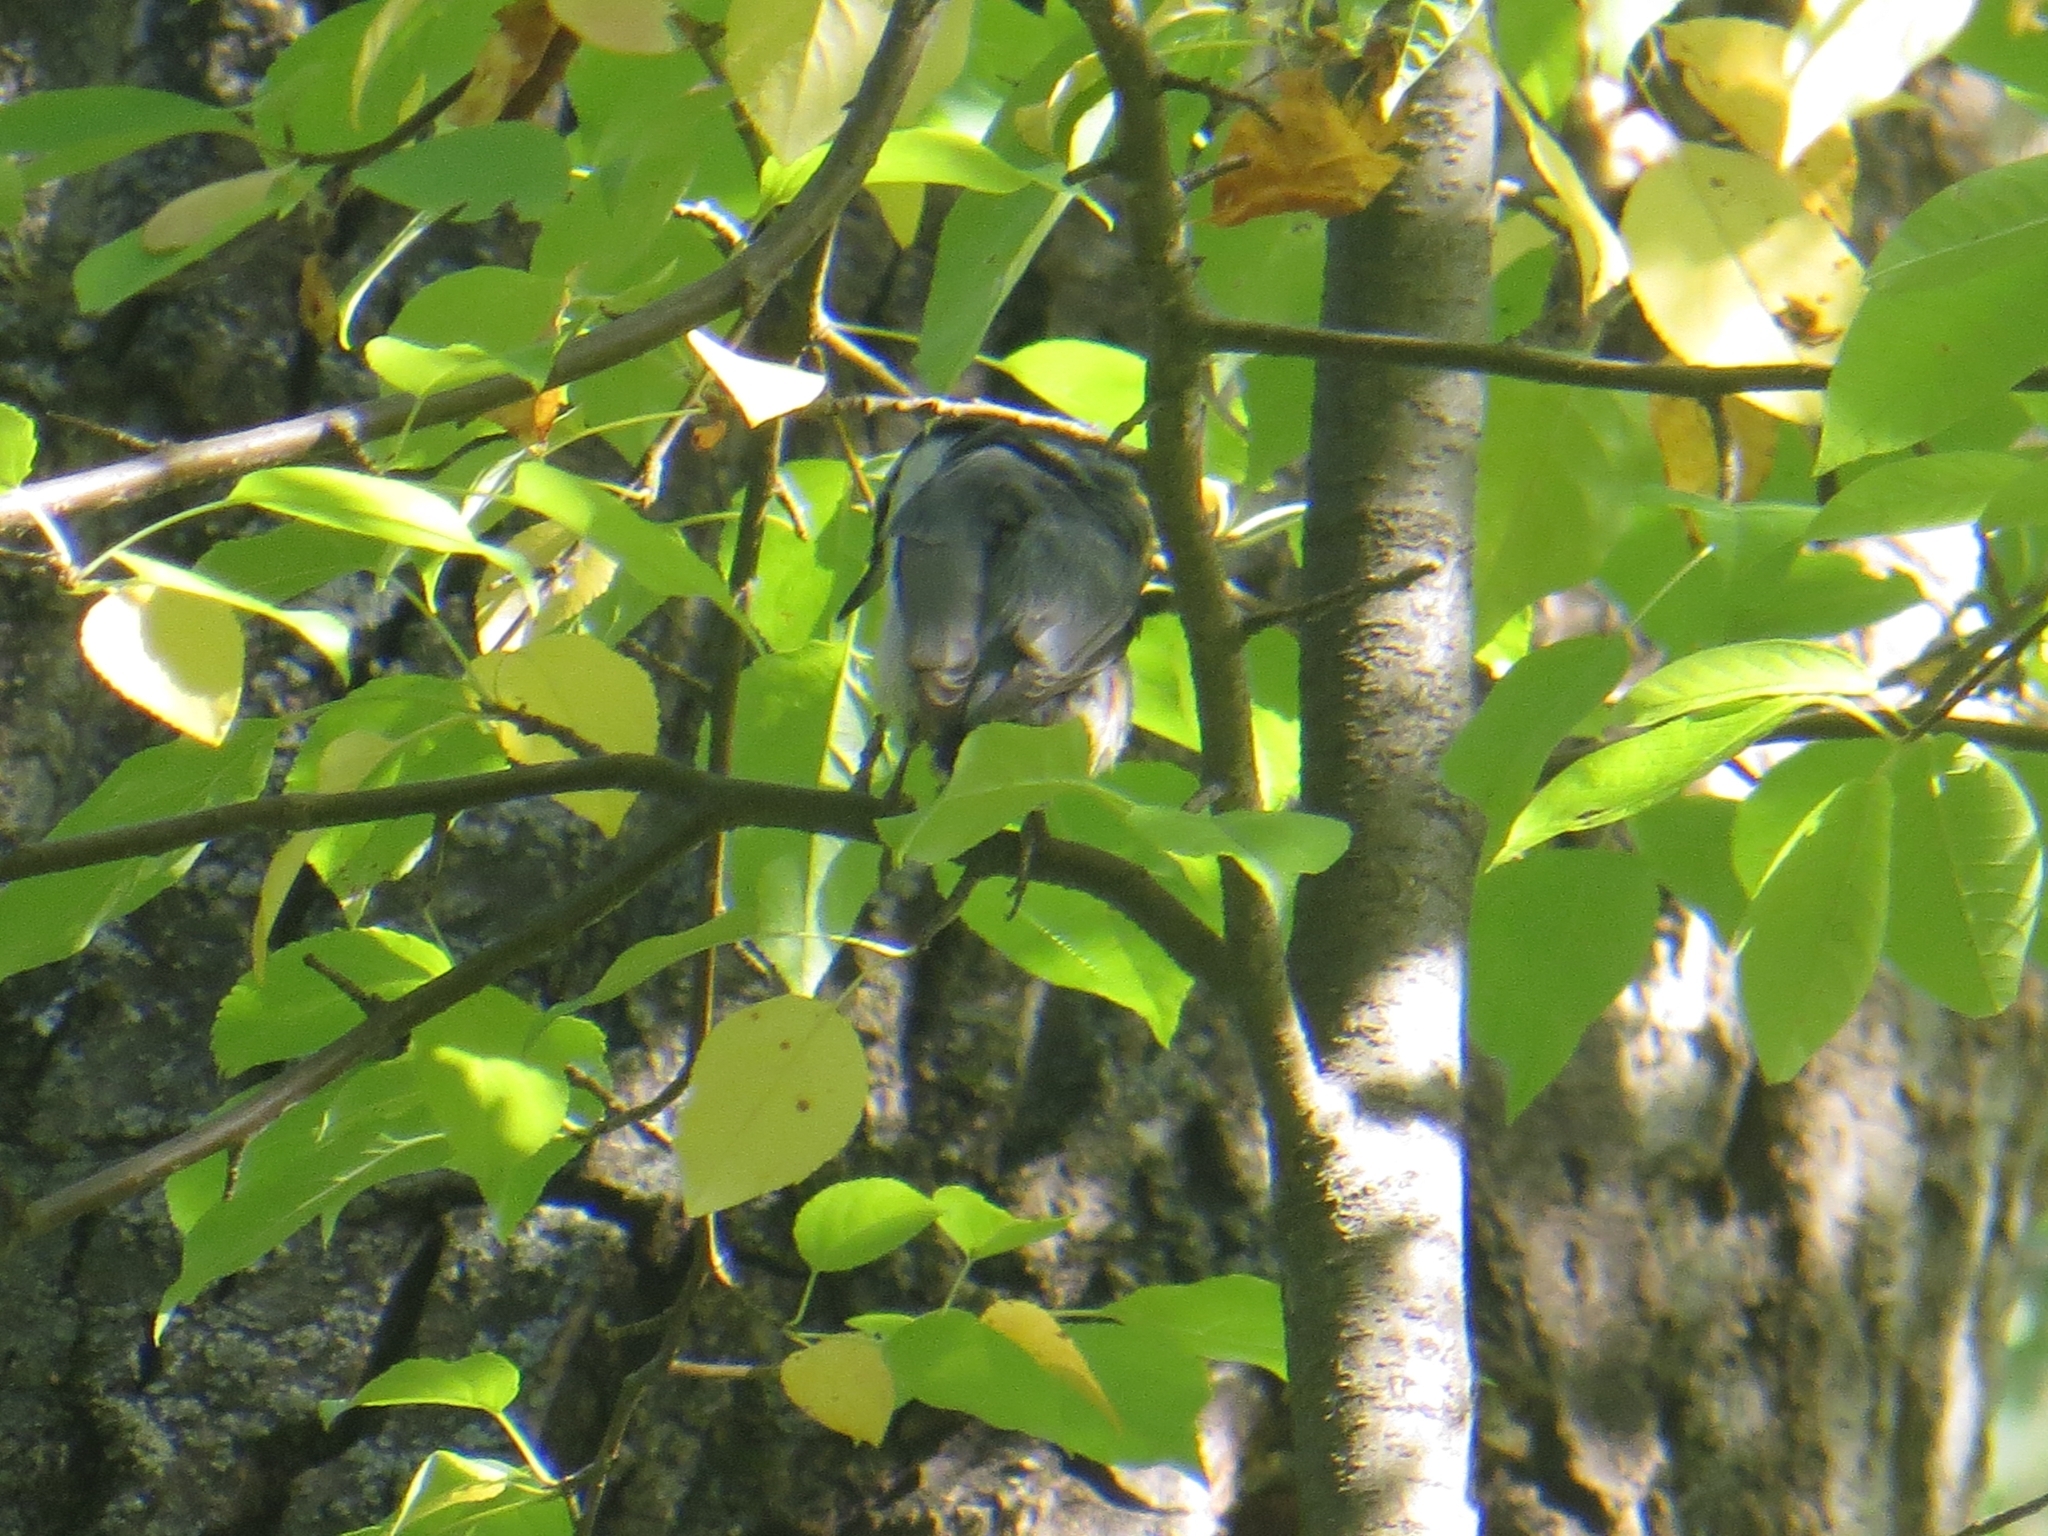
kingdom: Animalia
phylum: Chordata
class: Aves
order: Passeriformes
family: Sittidae
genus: Sitta
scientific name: Sitta europaea
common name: Eurasian nuthatch
